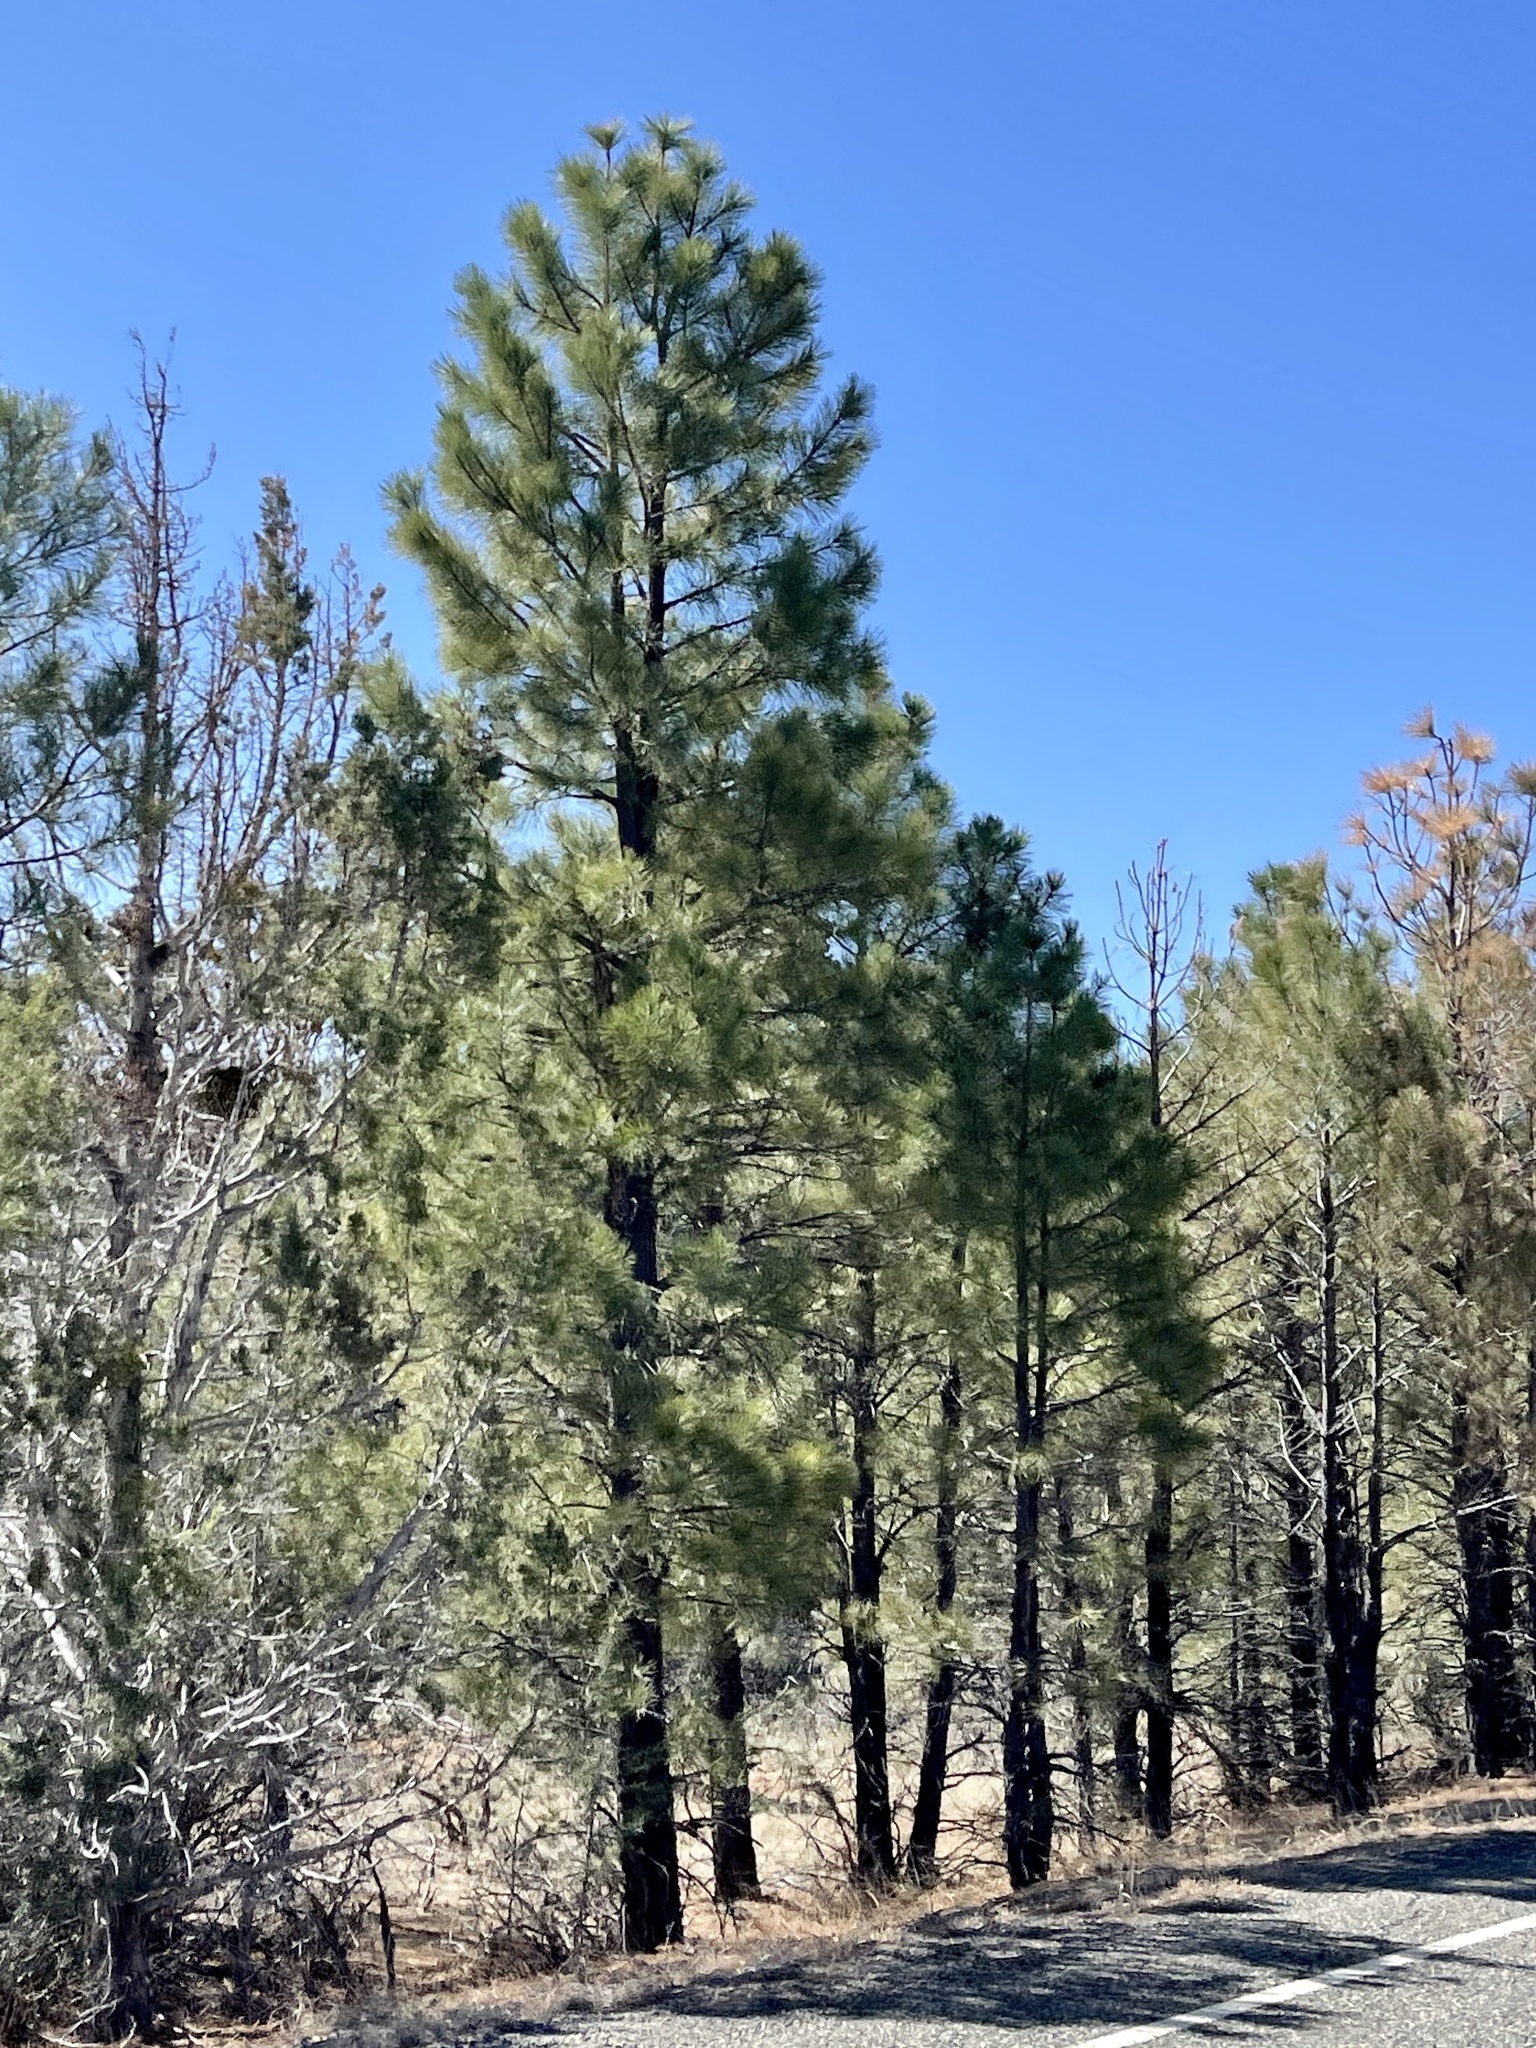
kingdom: Plantae
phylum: Tracheophyta
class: Pinopsida
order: Pinales
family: Pinaceae
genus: Pinus
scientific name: Pinus ponderosa
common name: Western yellow-pine
